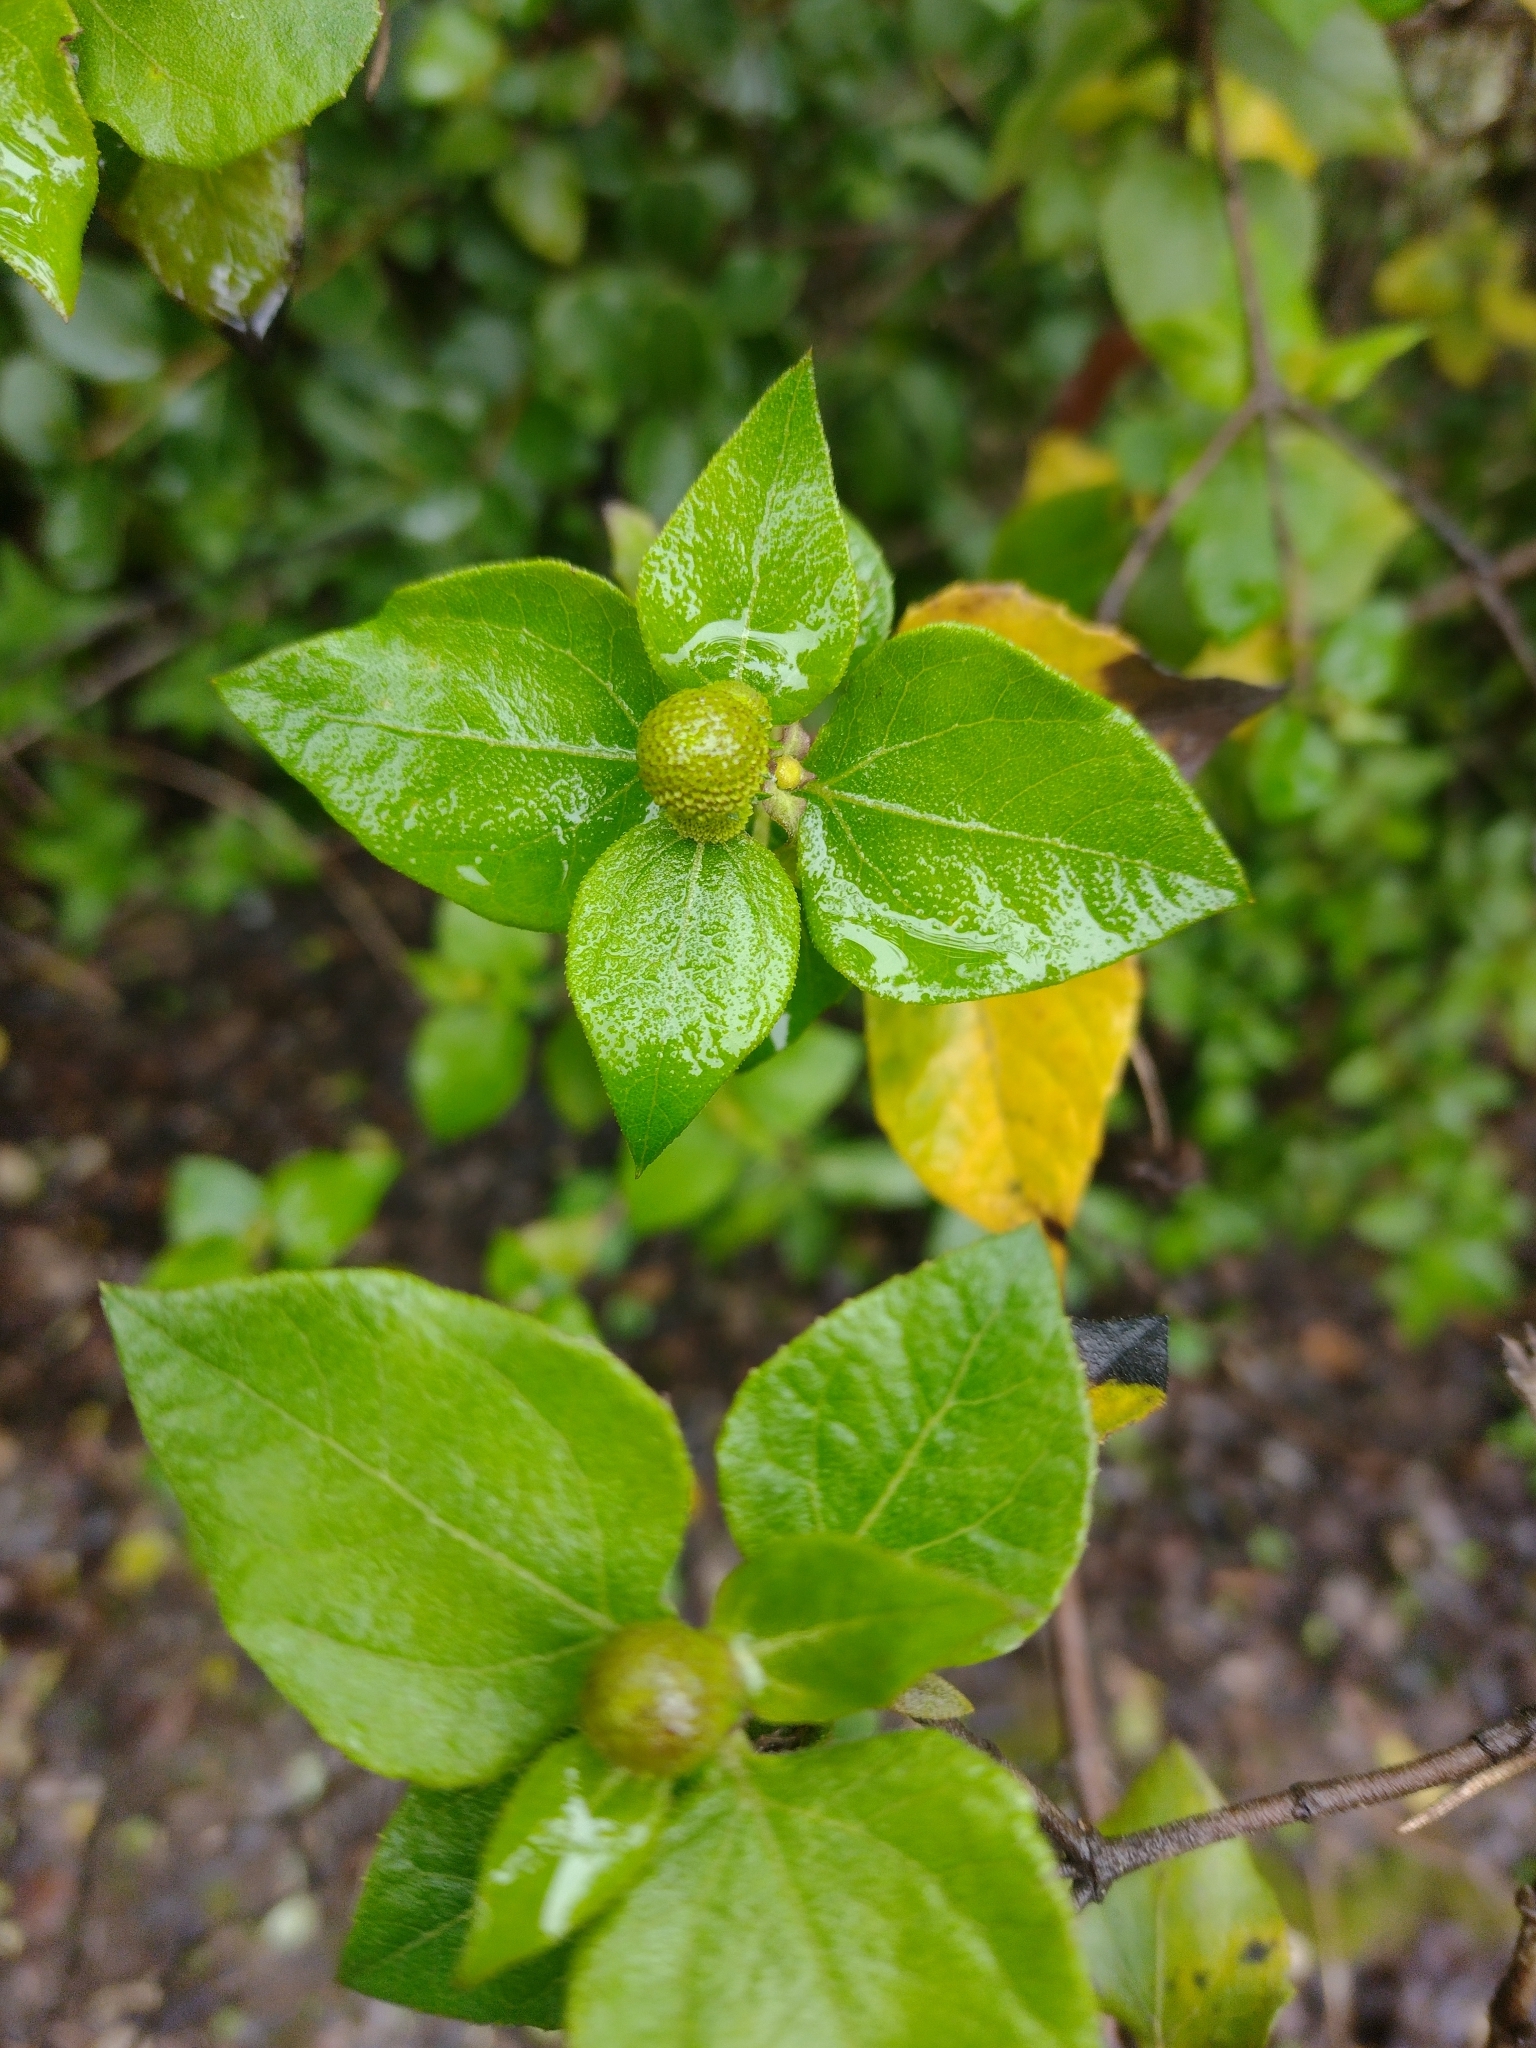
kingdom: Plantae
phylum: Tracheophyta
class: Magnoliopsida
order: Asterales
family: Asteraceae
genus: Podanthus
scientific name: Podanthus ovatifolius
